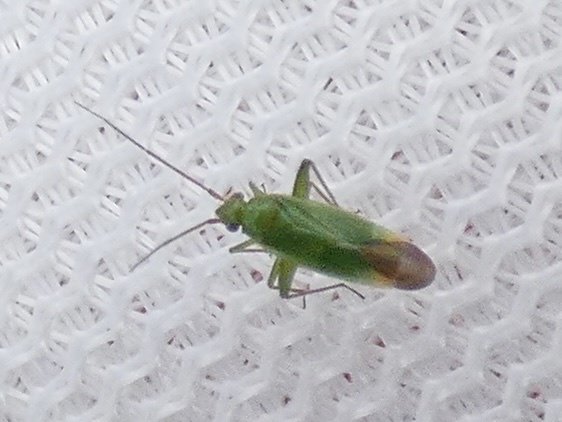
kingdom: Animalia
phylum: Arthropoda
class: Insecta
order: Hemiptera
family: Miridae
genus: Orthotylus
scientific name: Orthotylus ericetorum
